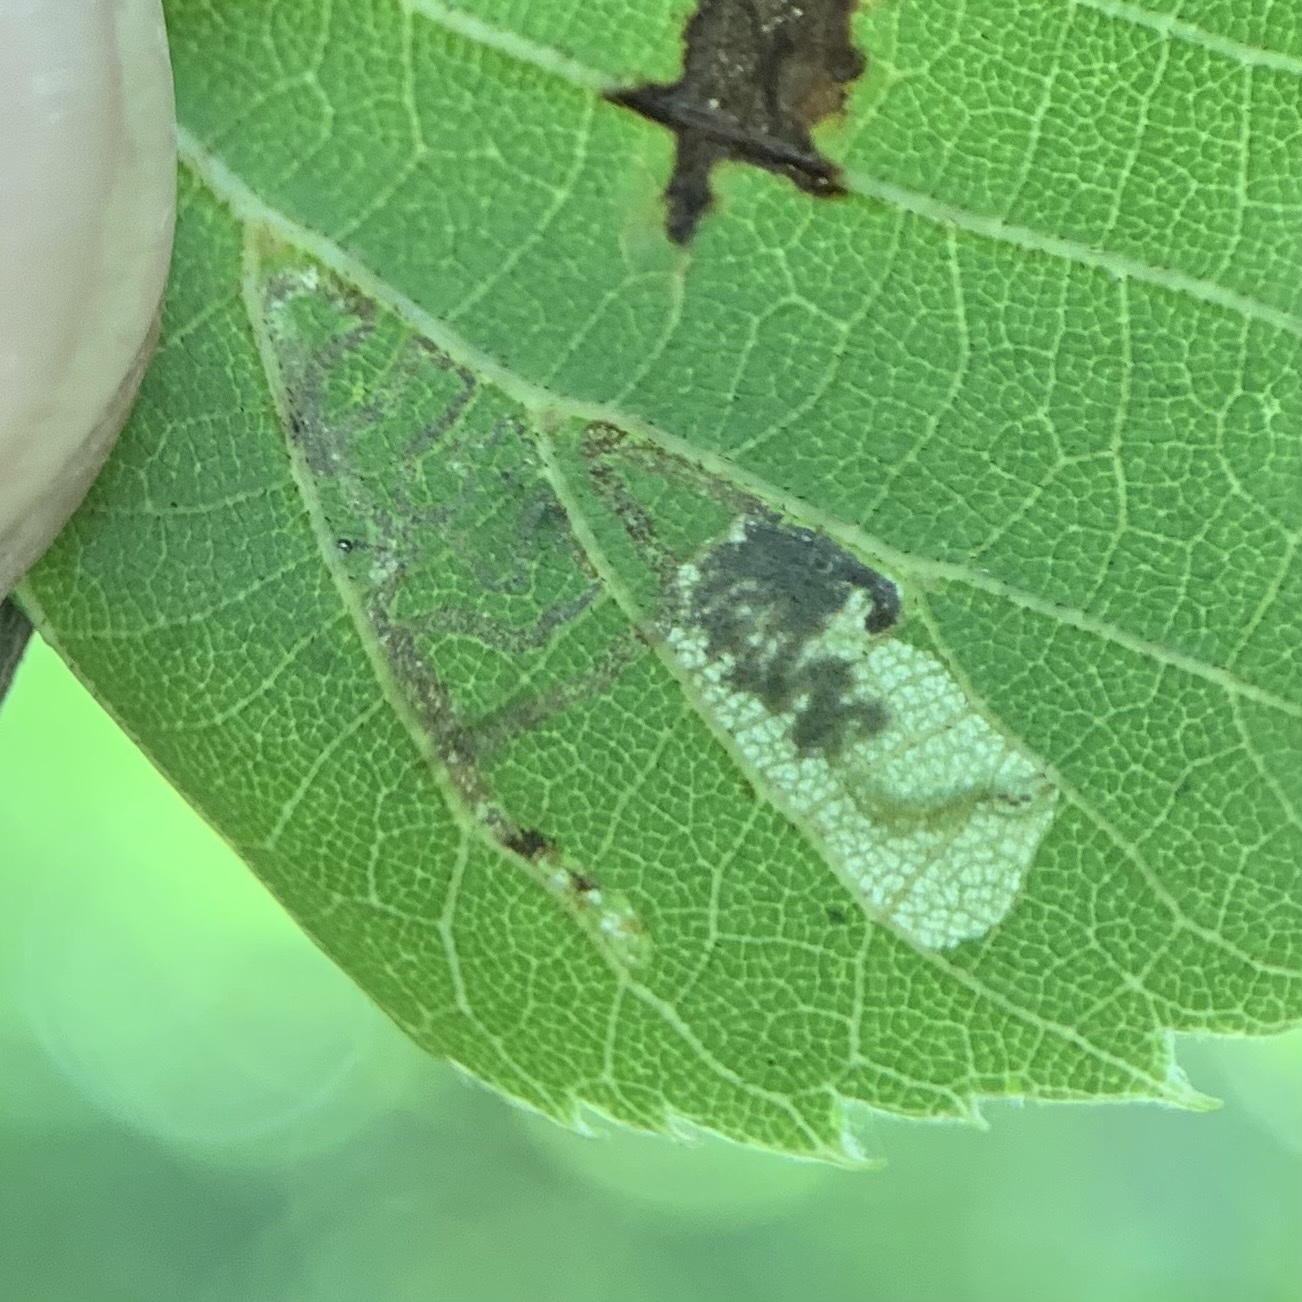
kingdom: Animalia
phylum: Arthropoda
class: Insecta
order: Lepidoptera
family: Nepticulidae
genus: Stigmella
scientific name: Stigmella argentifasciella
